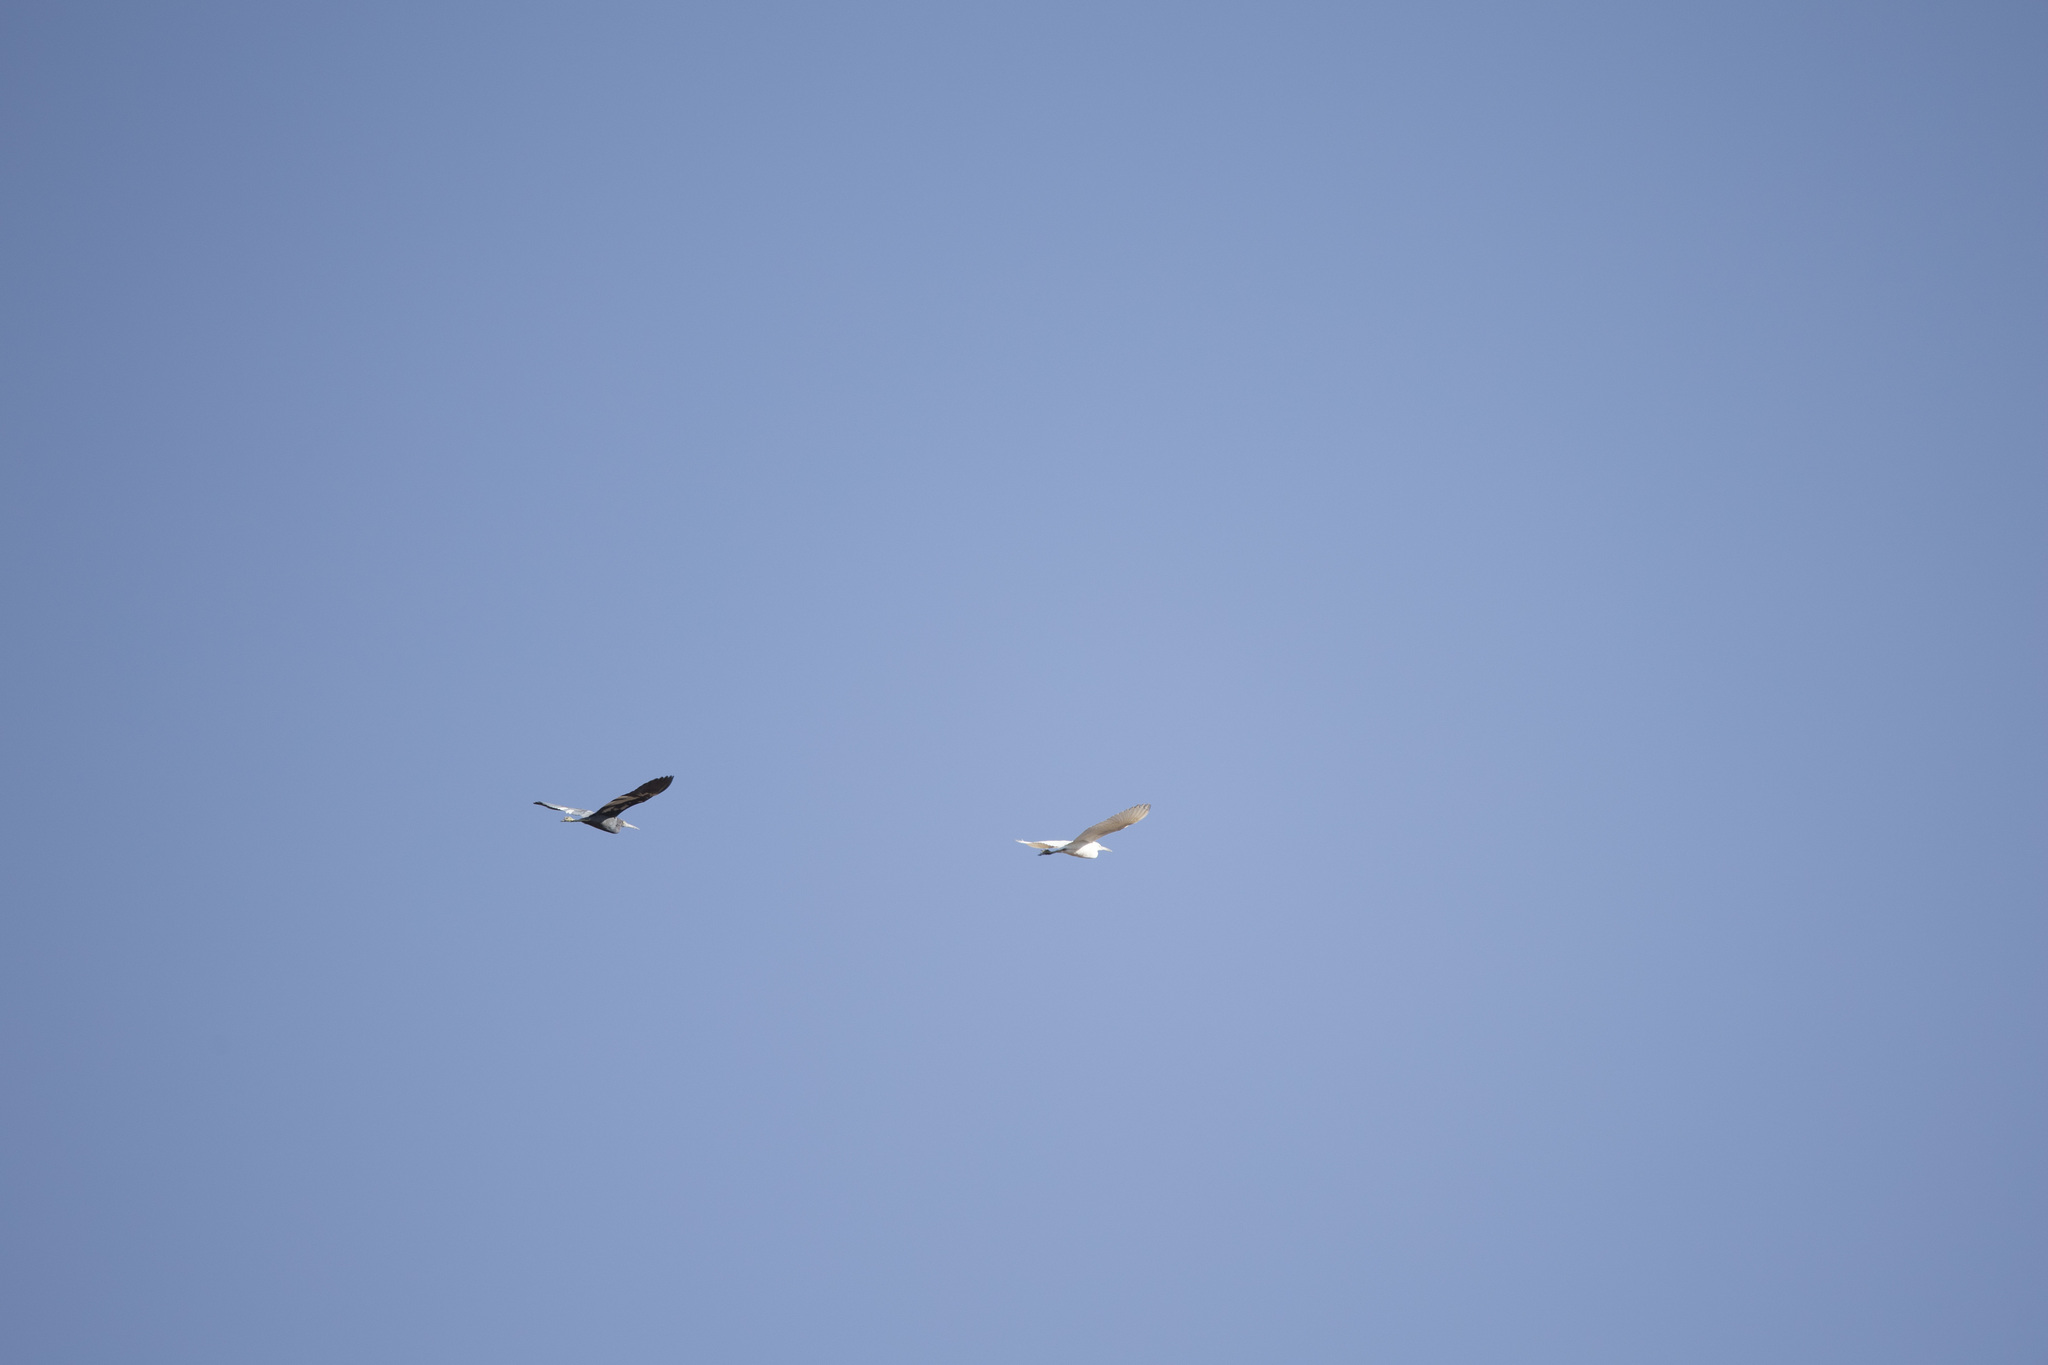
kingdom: Animalia
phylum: Chordata
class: Aves
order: Pelecaniformes
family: Ardeidae
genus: Egretta
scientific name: Egretta caerulea
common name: Little blue heron
